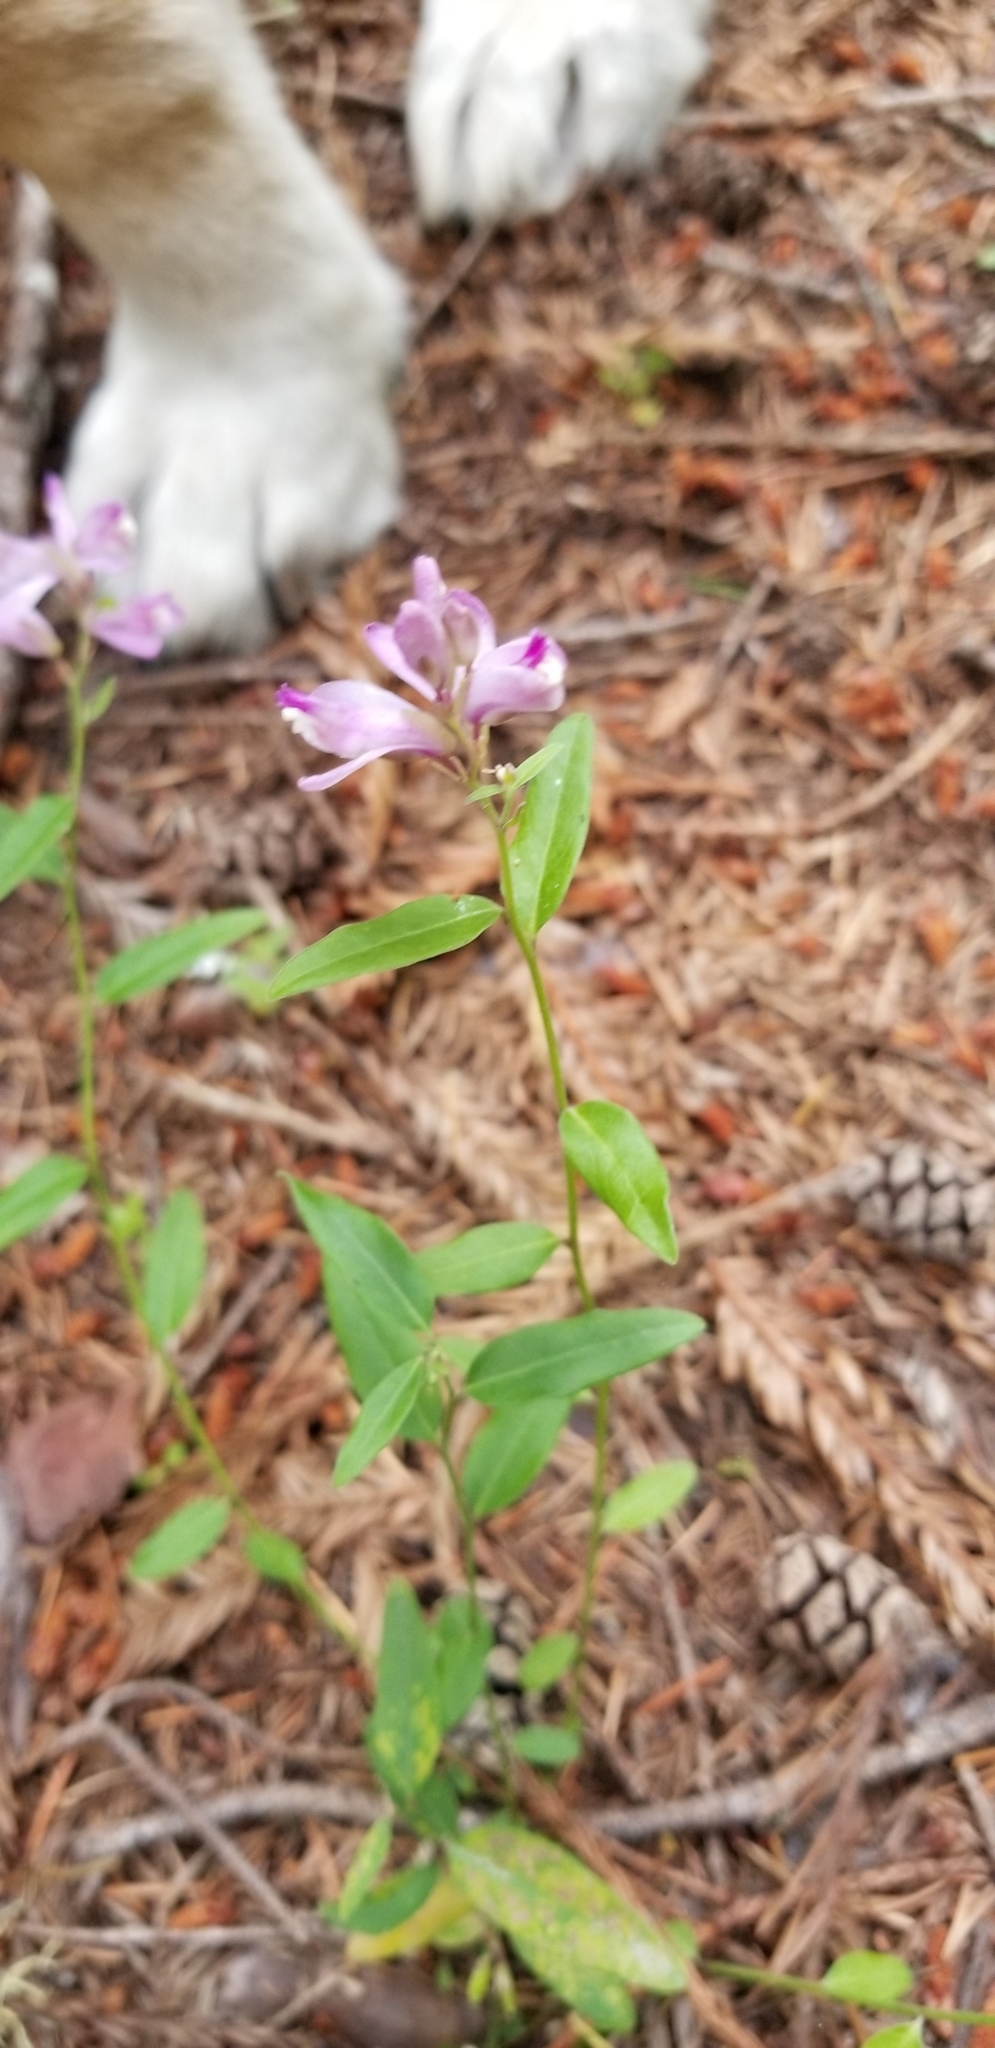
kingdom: Plantae
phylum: Tracheophyta
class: Magnoliopsida
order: Fabales
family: Polygalaceae
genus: Rhinotropis
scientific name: Rhinotropis californica
